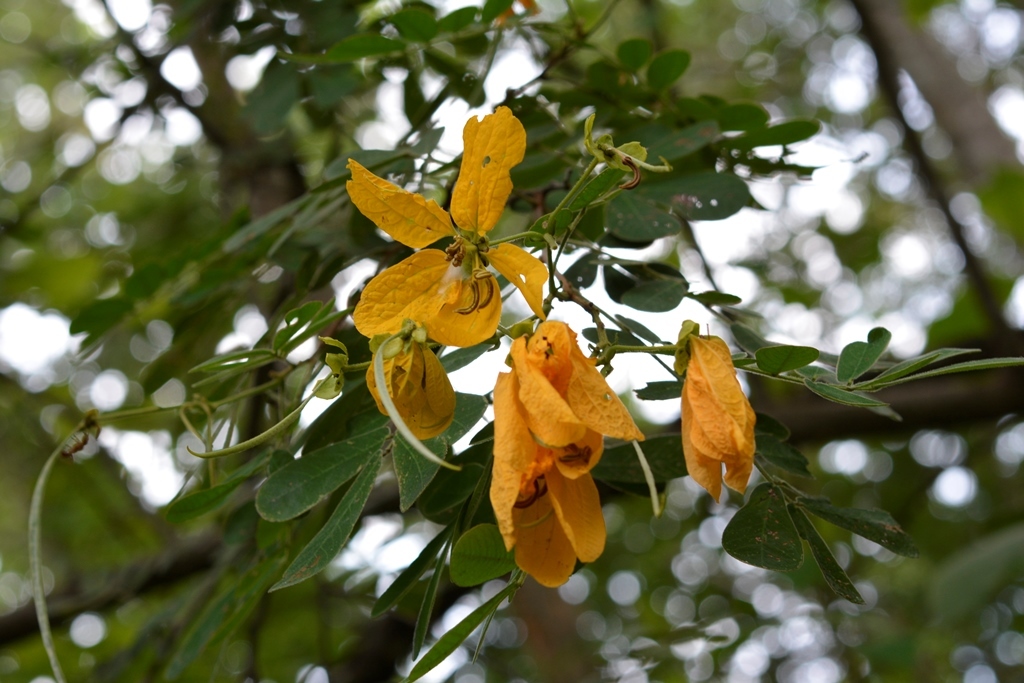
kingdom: Plantae
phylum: Tracheophyta
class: Magnoliopsida
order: Fabales
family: Fabaceae
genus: Senna
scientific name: Senna skinneri
